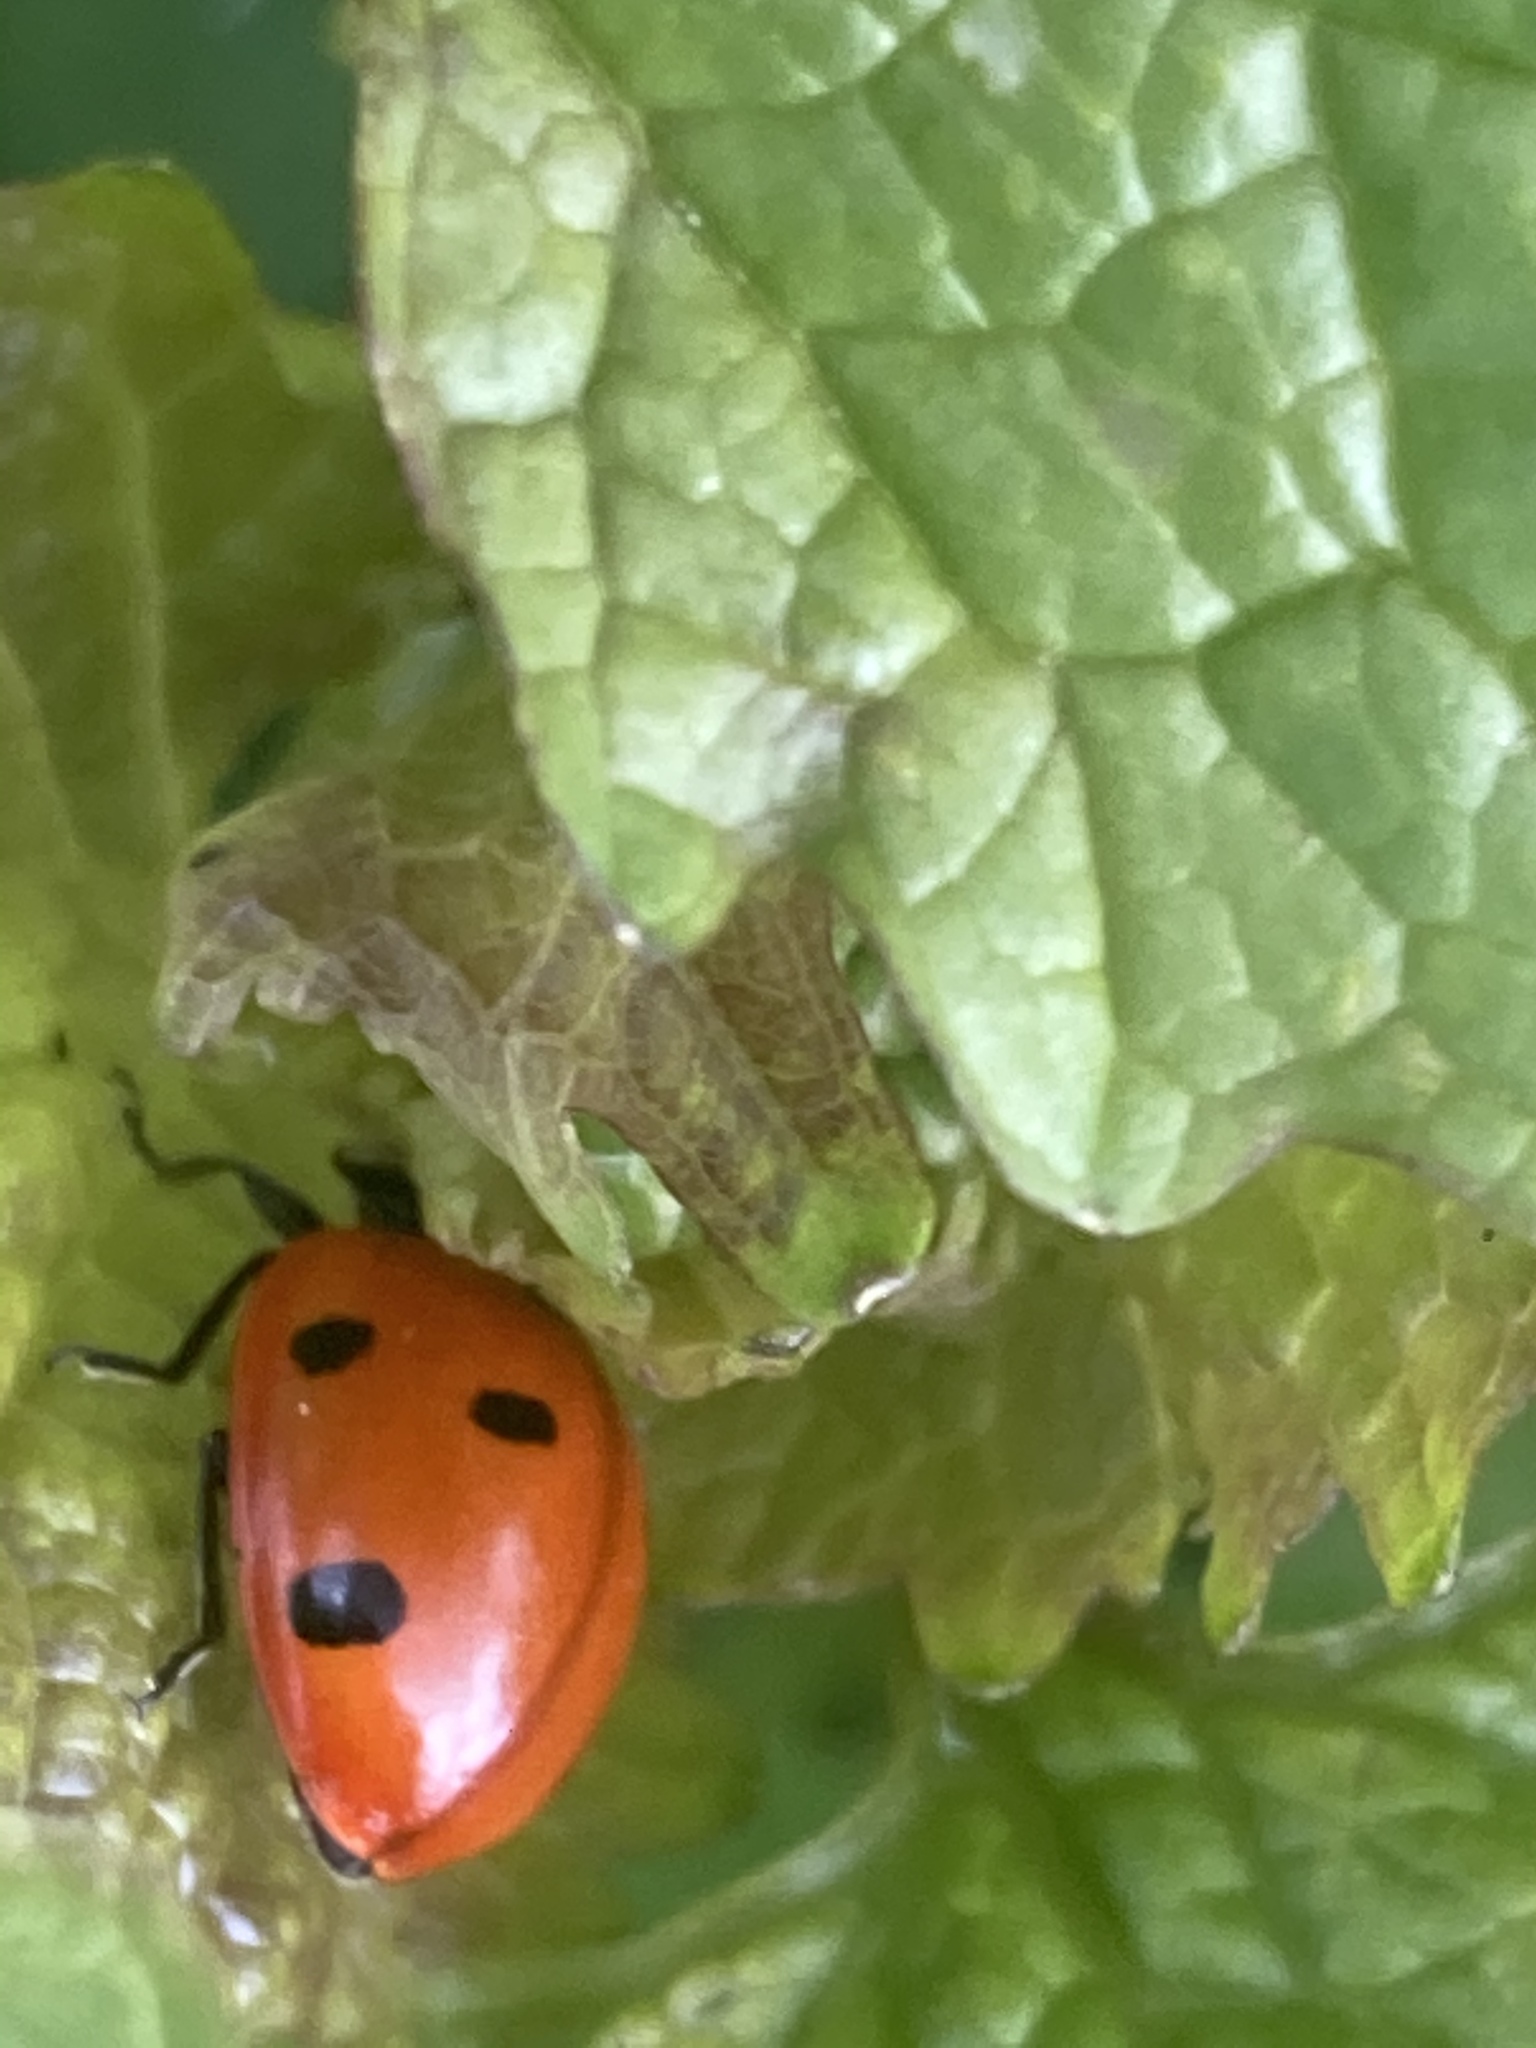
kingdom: Animalia
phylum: Arthropoda
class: Insecta
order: Coleoptera
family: Coccinellidae
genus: Coccinella
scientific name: Coccinella septempunctata
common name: Sevenspotted lady beetle
